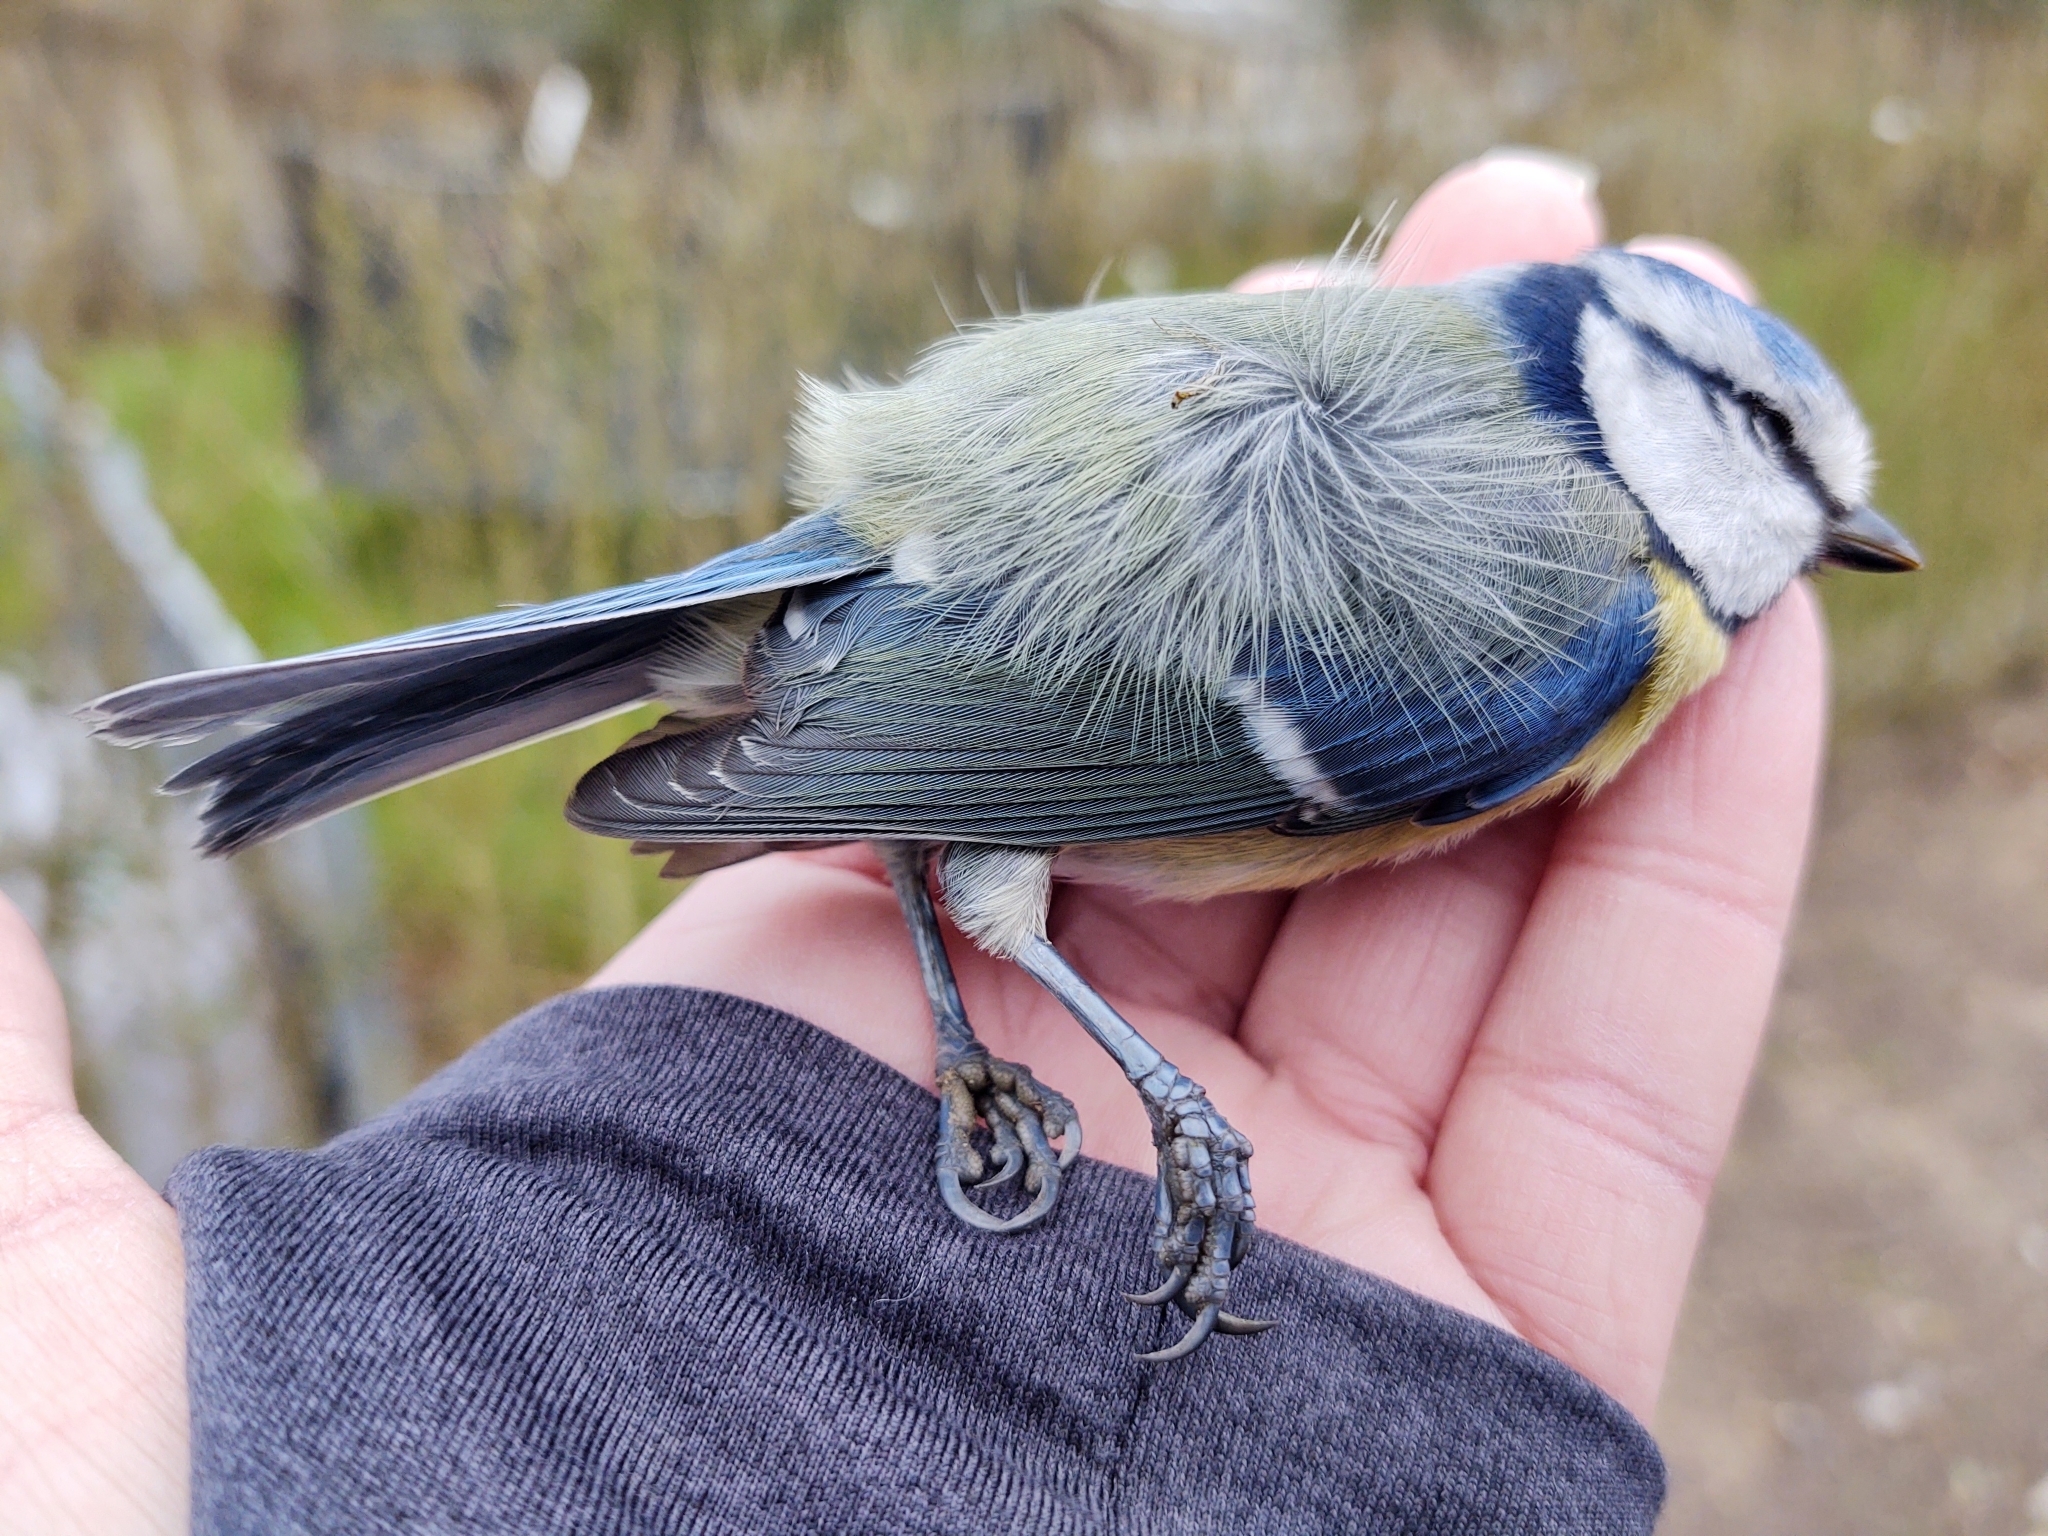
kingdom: Animalia
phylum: Chordata
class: Aves
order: Passeriformes
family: Paridae
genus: Cyanistes
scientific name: Cyanistes caeruleus
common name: Eurasian blue tit
